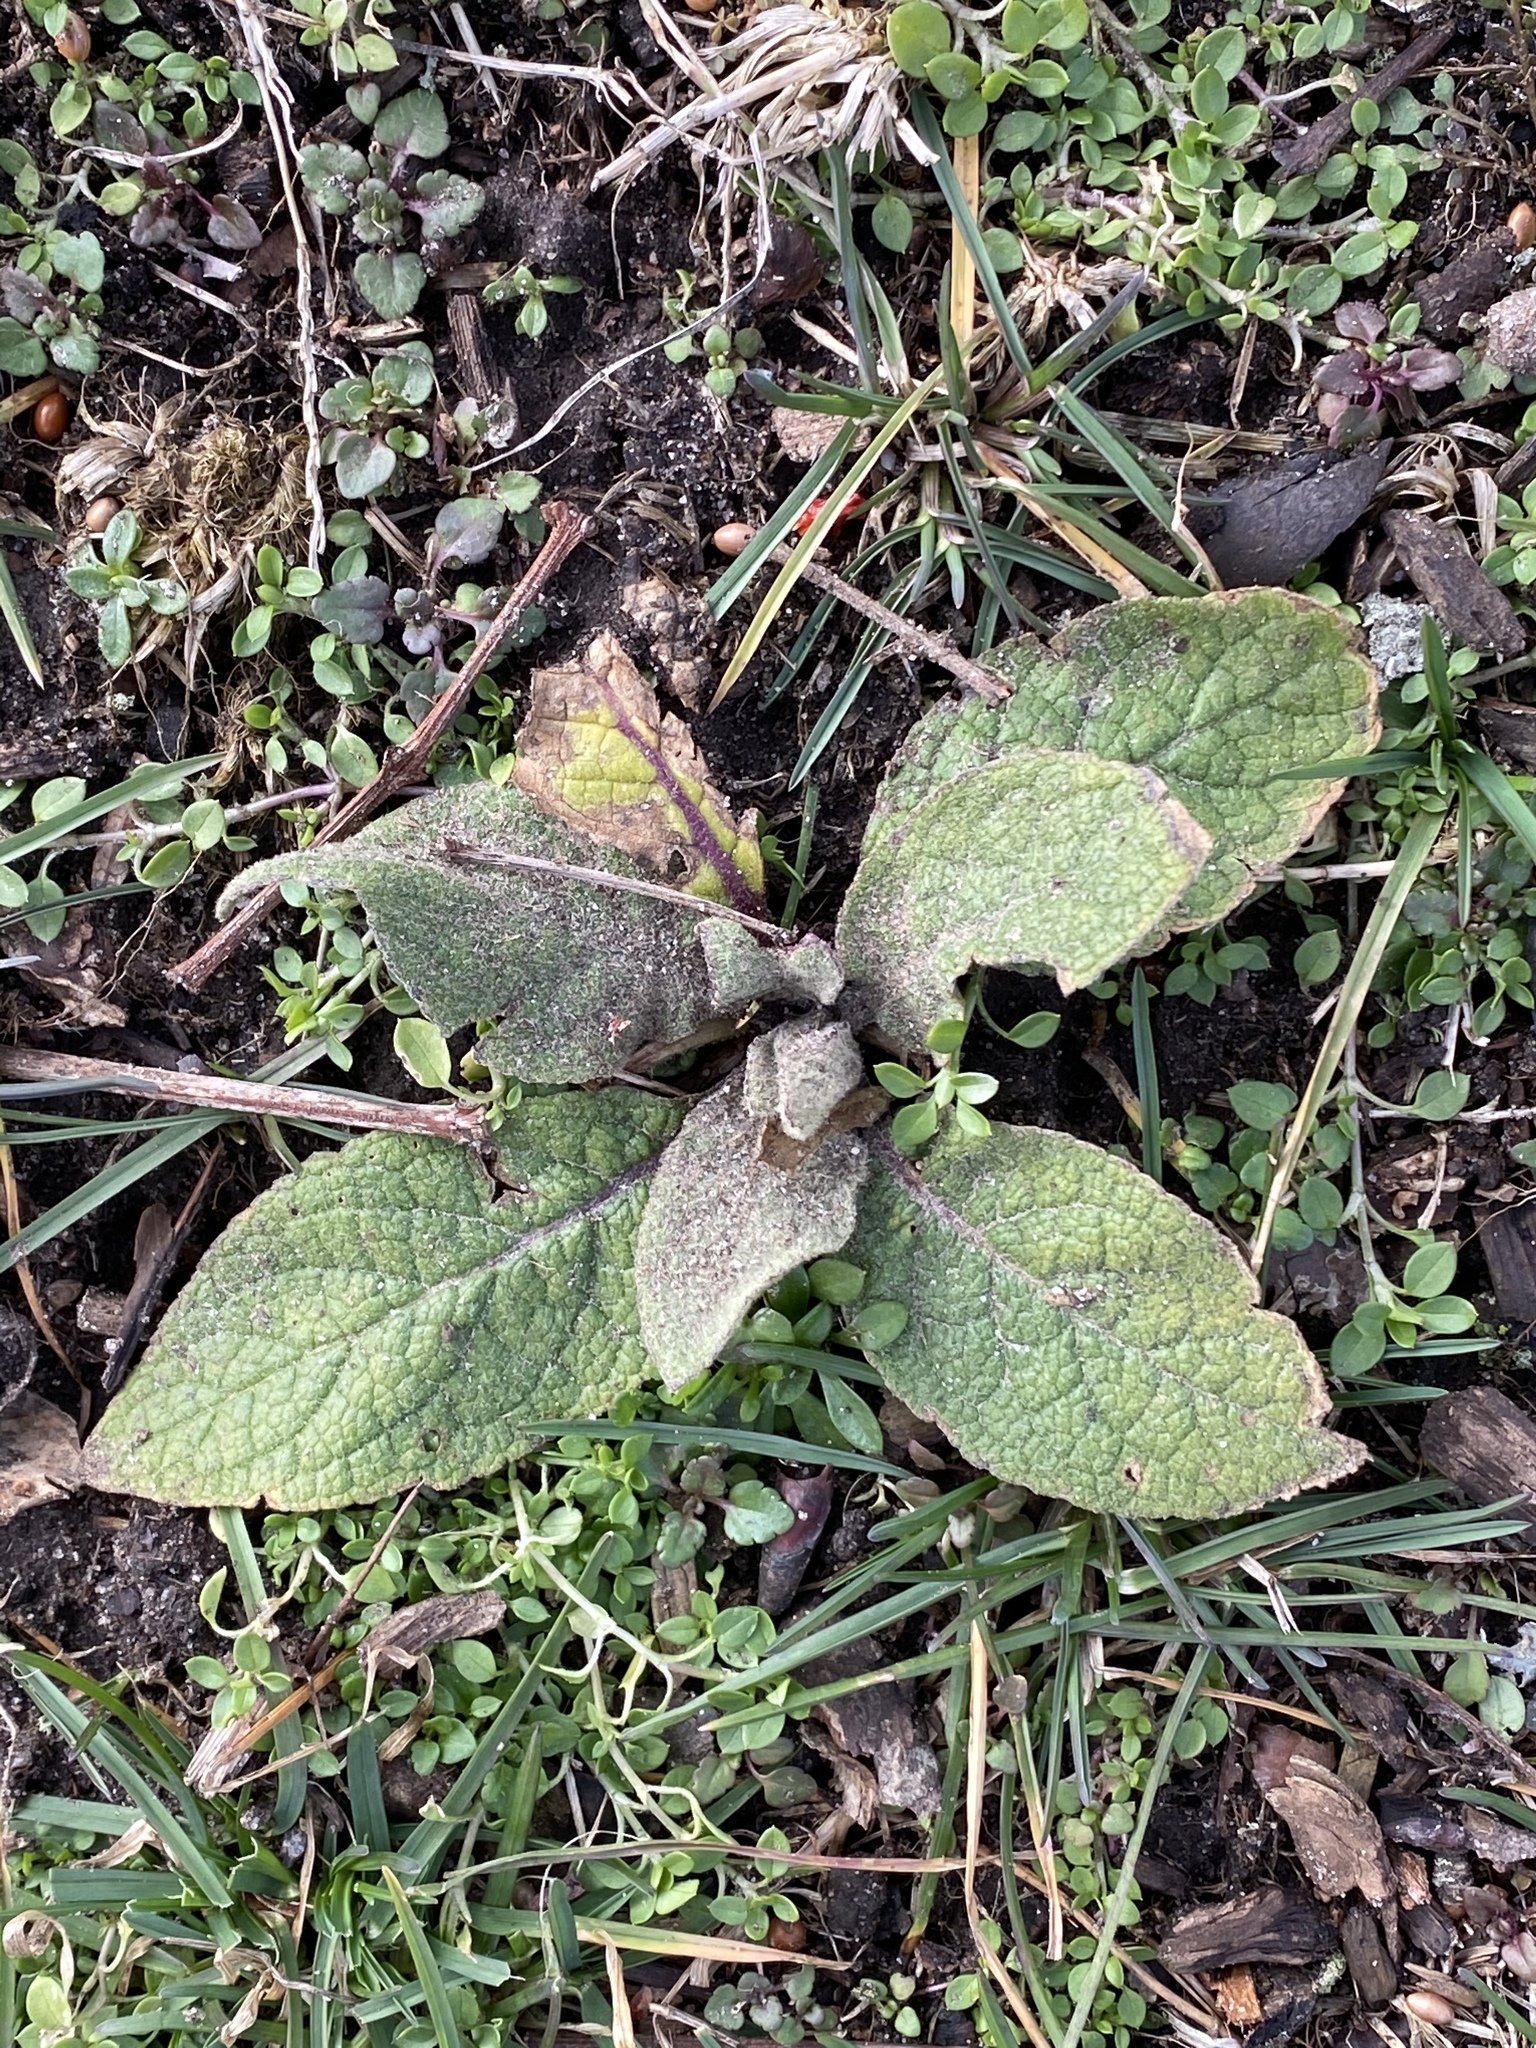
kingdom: Plantae
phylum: Tracheophyta
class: Magnoliopsida
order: Lamiales
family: Scrophulariaceae
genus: Verbascum
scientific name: Verbascum thapsus
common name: Common mullein
